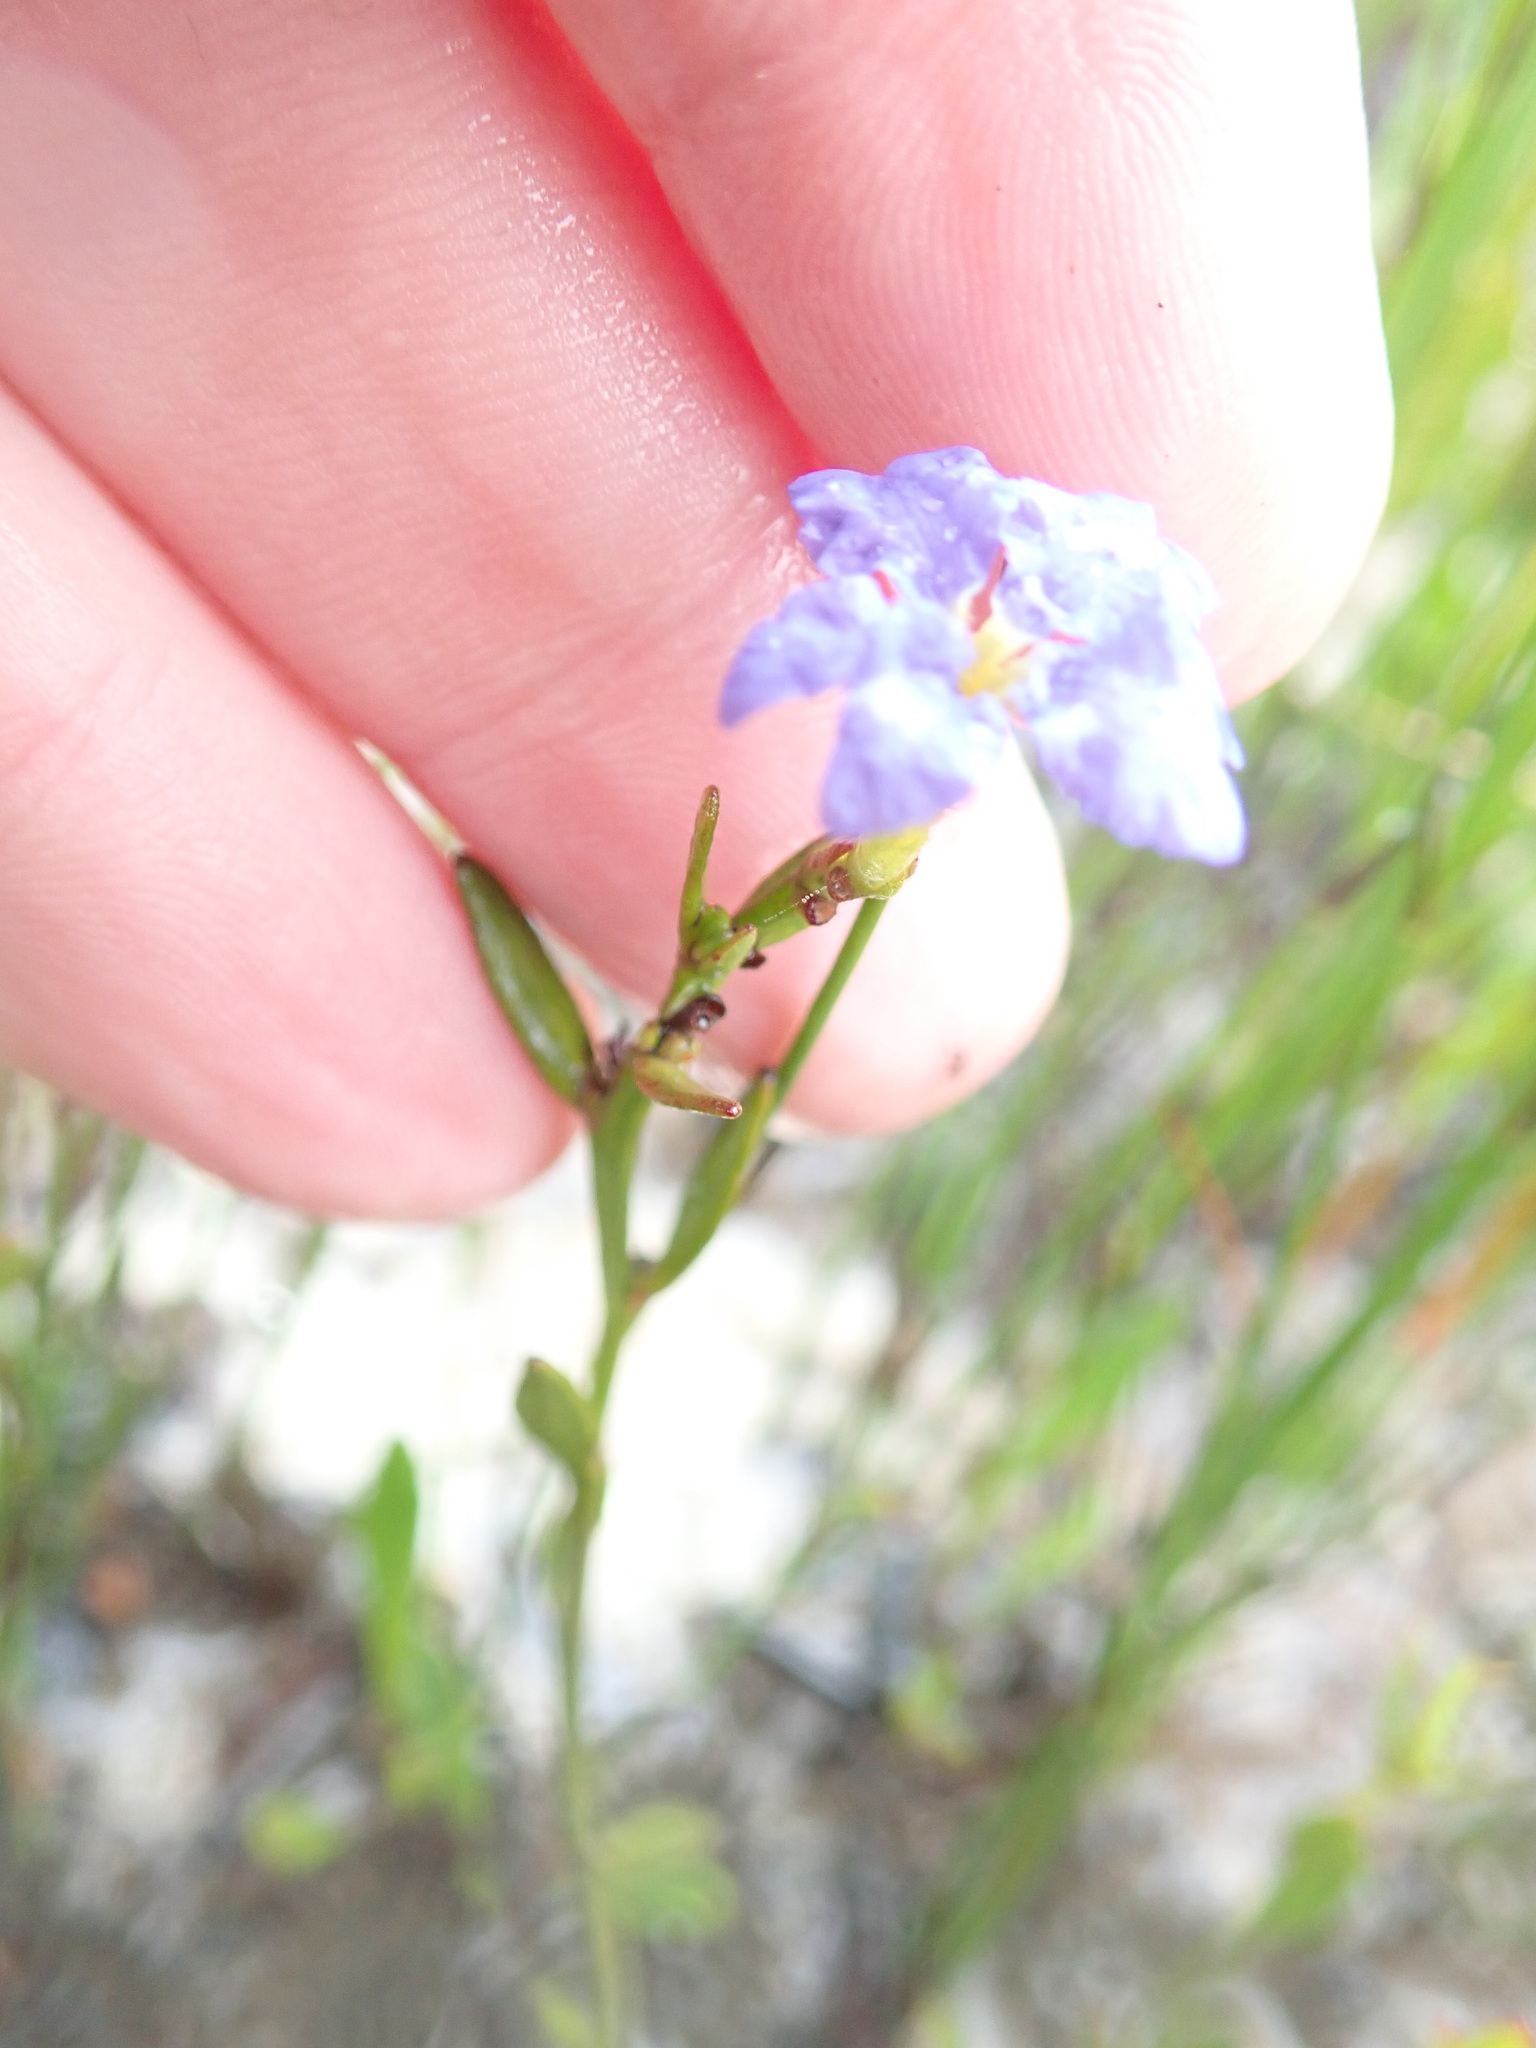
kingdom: Plantae
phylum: Tracheophyta
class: Magnoliopsida
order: Asterales
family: Goodeniaceae
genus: Dampiera
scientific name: Dampiera stricta
